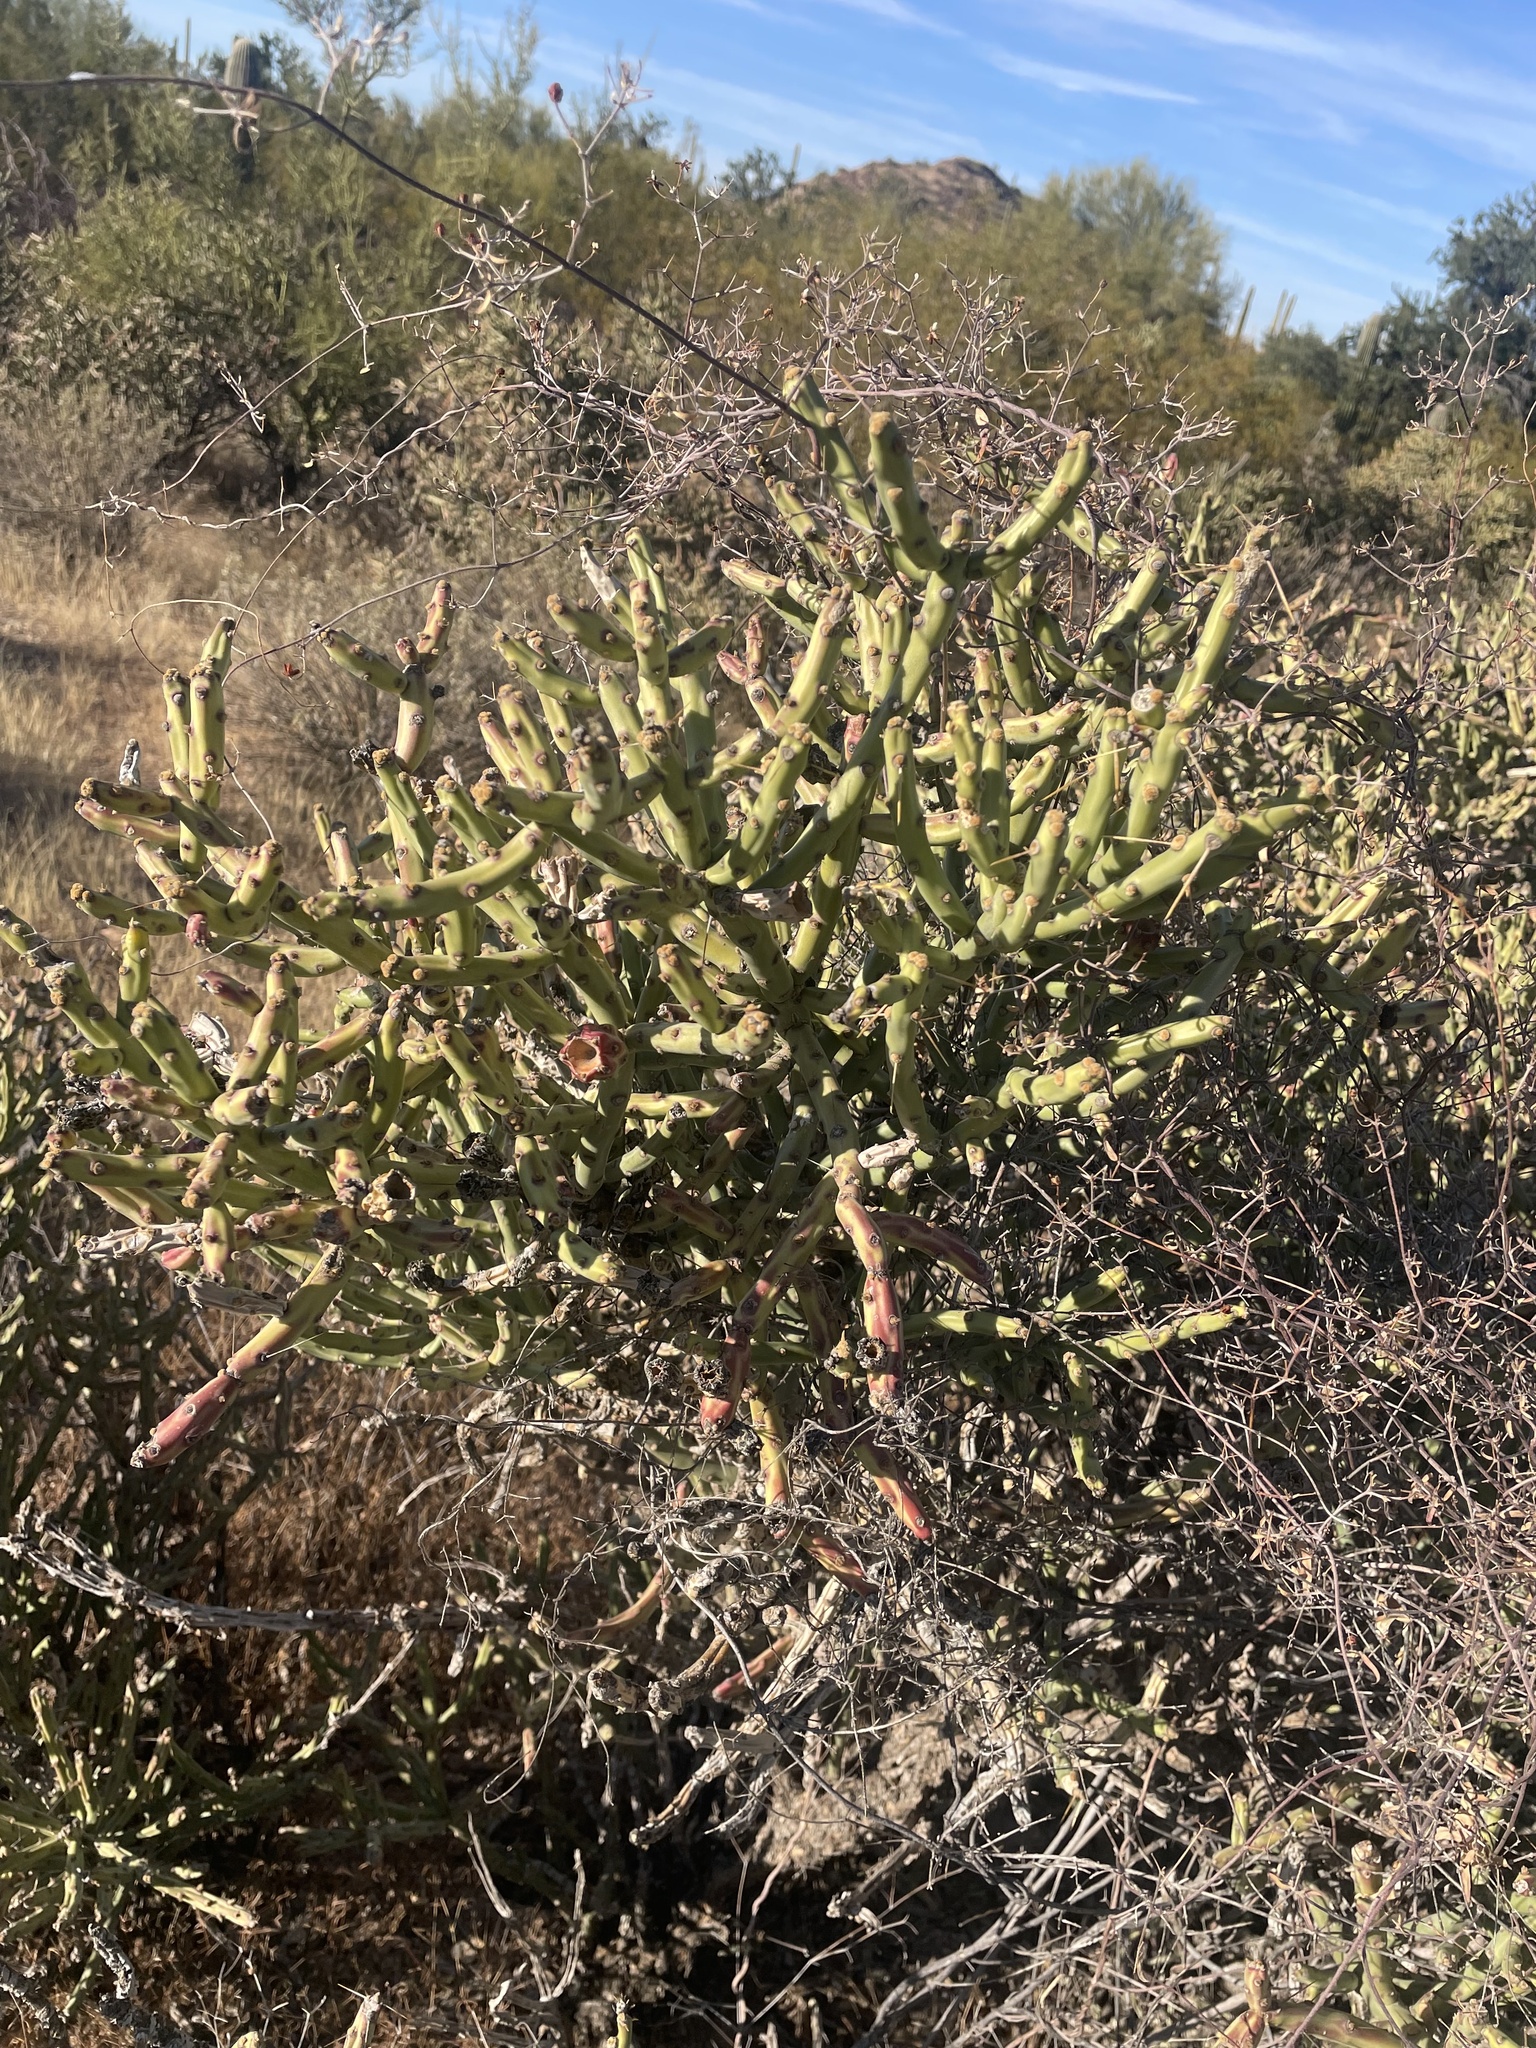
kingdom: Plantae
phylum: Tracheophyta
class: Magnoliopsida
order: Caryophyllales
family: Cactaceae
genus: Cylindropuntia
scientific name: Cylindropuntia arbuscula
